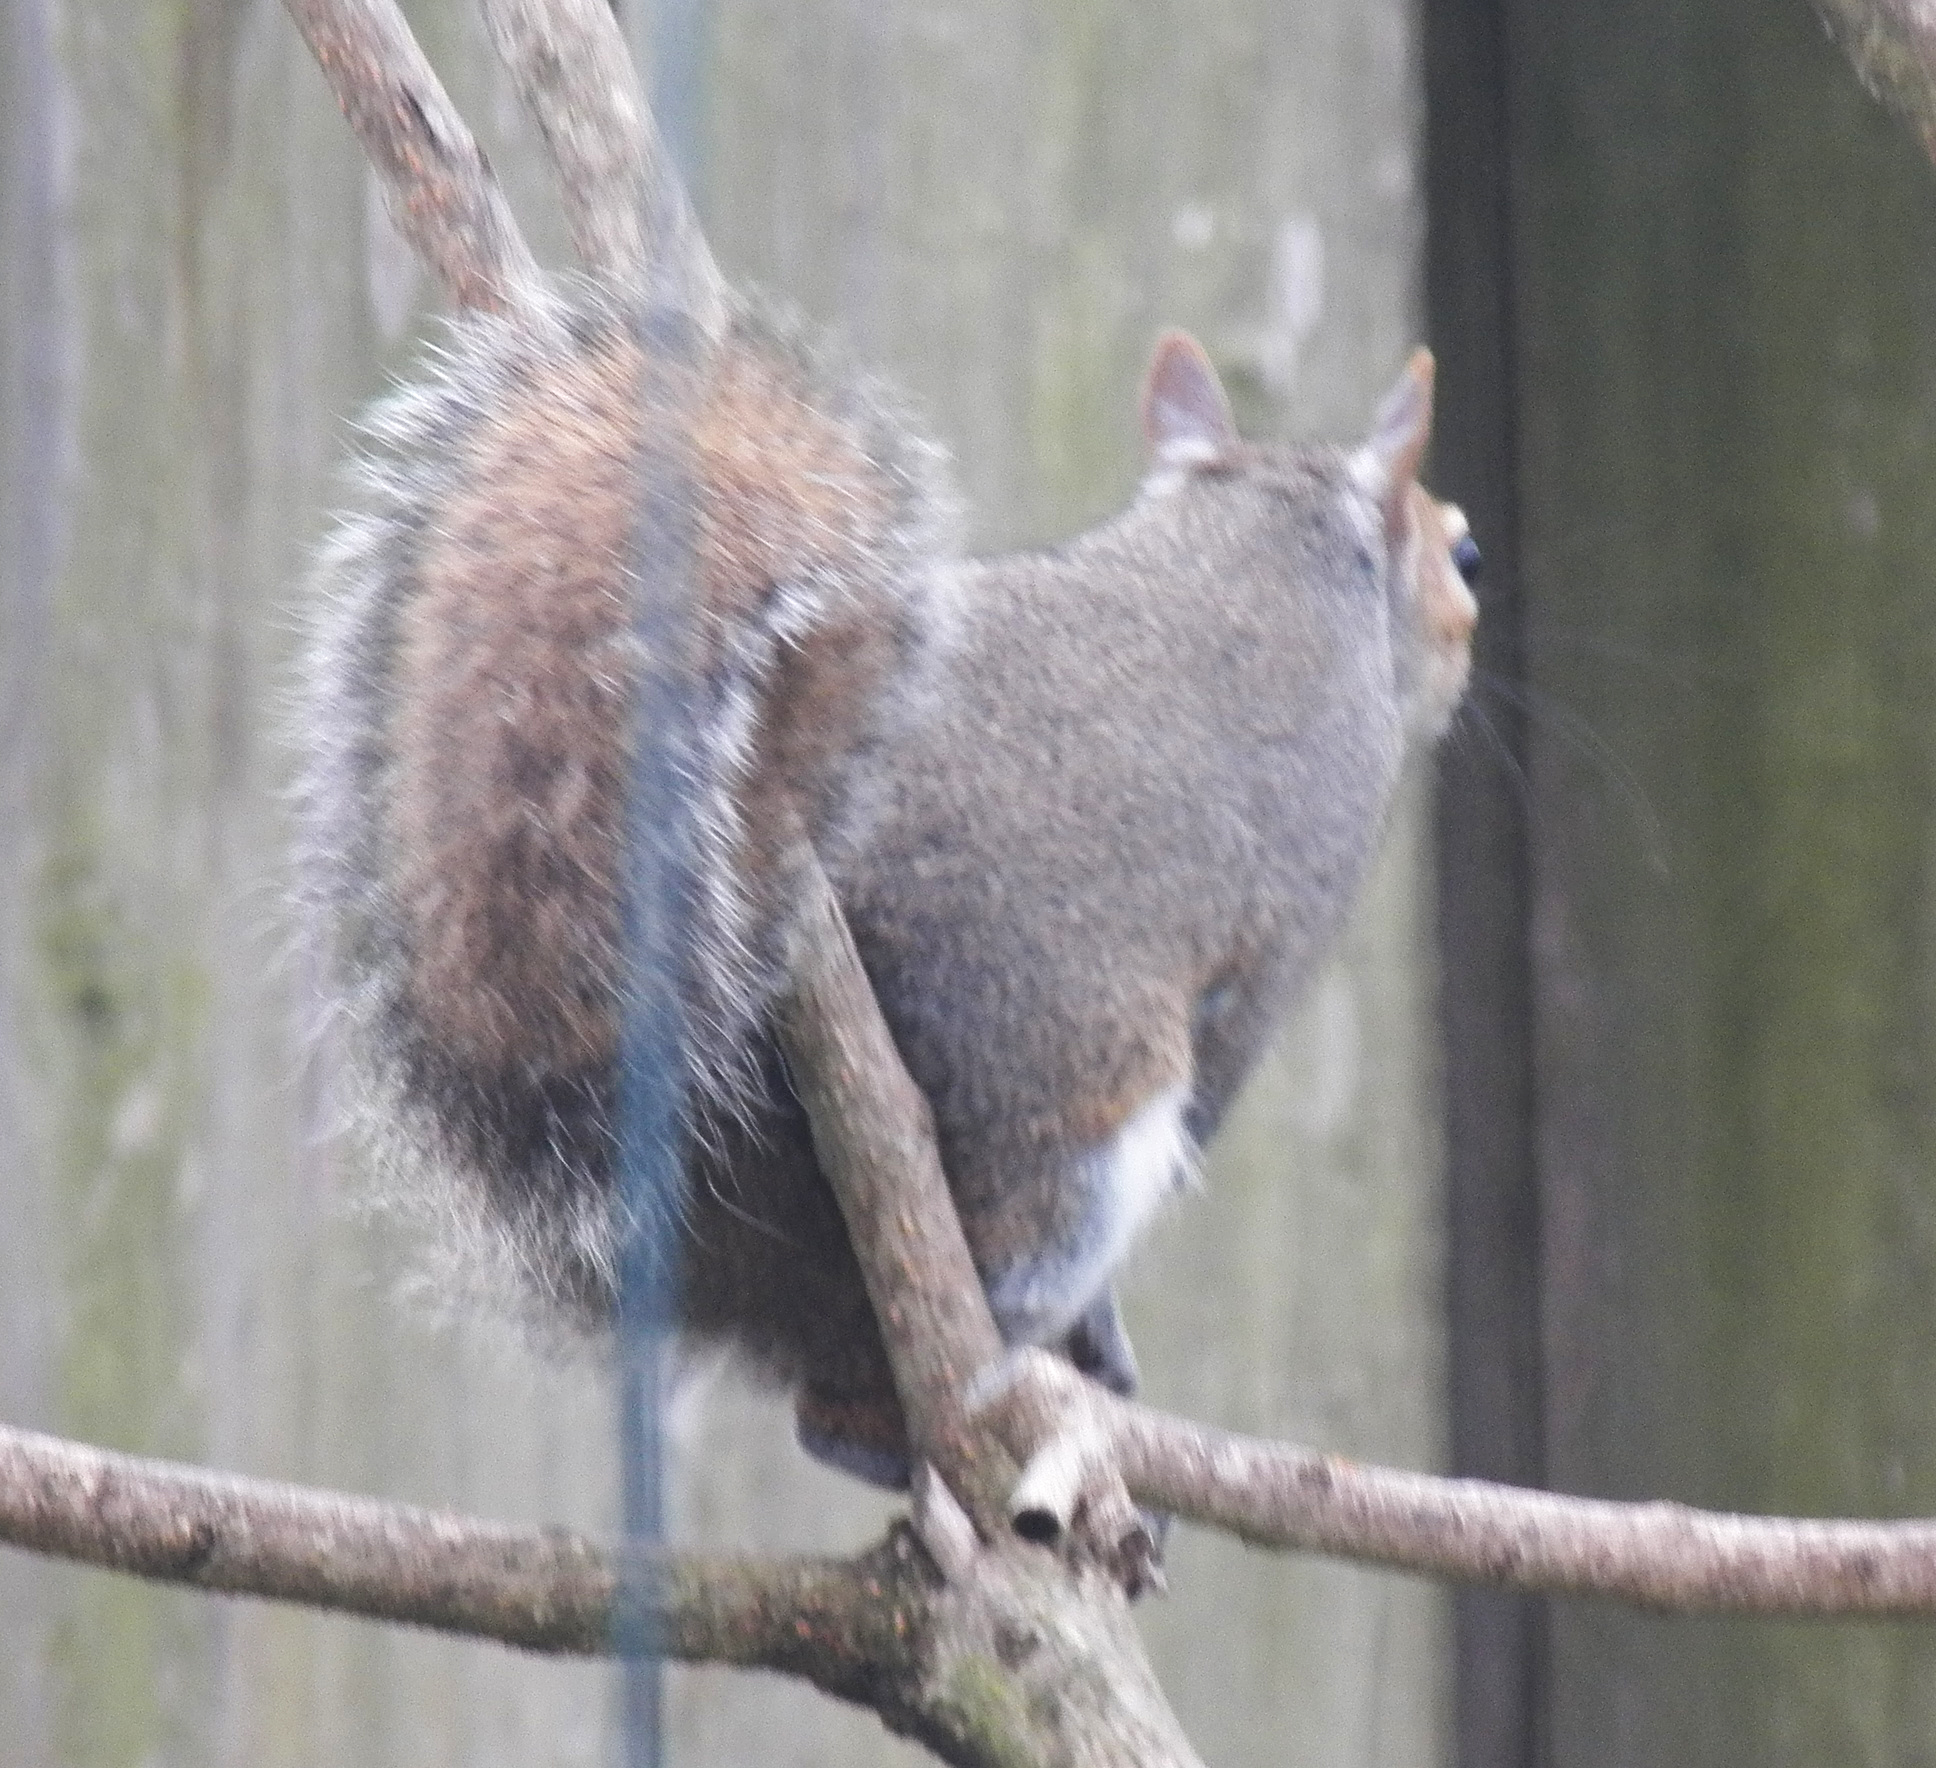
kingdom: Animalia
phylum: Chordata
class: Mammalia
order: Rodentia
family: Sciuridae
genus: Sciurus
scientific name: Sciurus carolinensis
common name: Eastern gray squirrel
